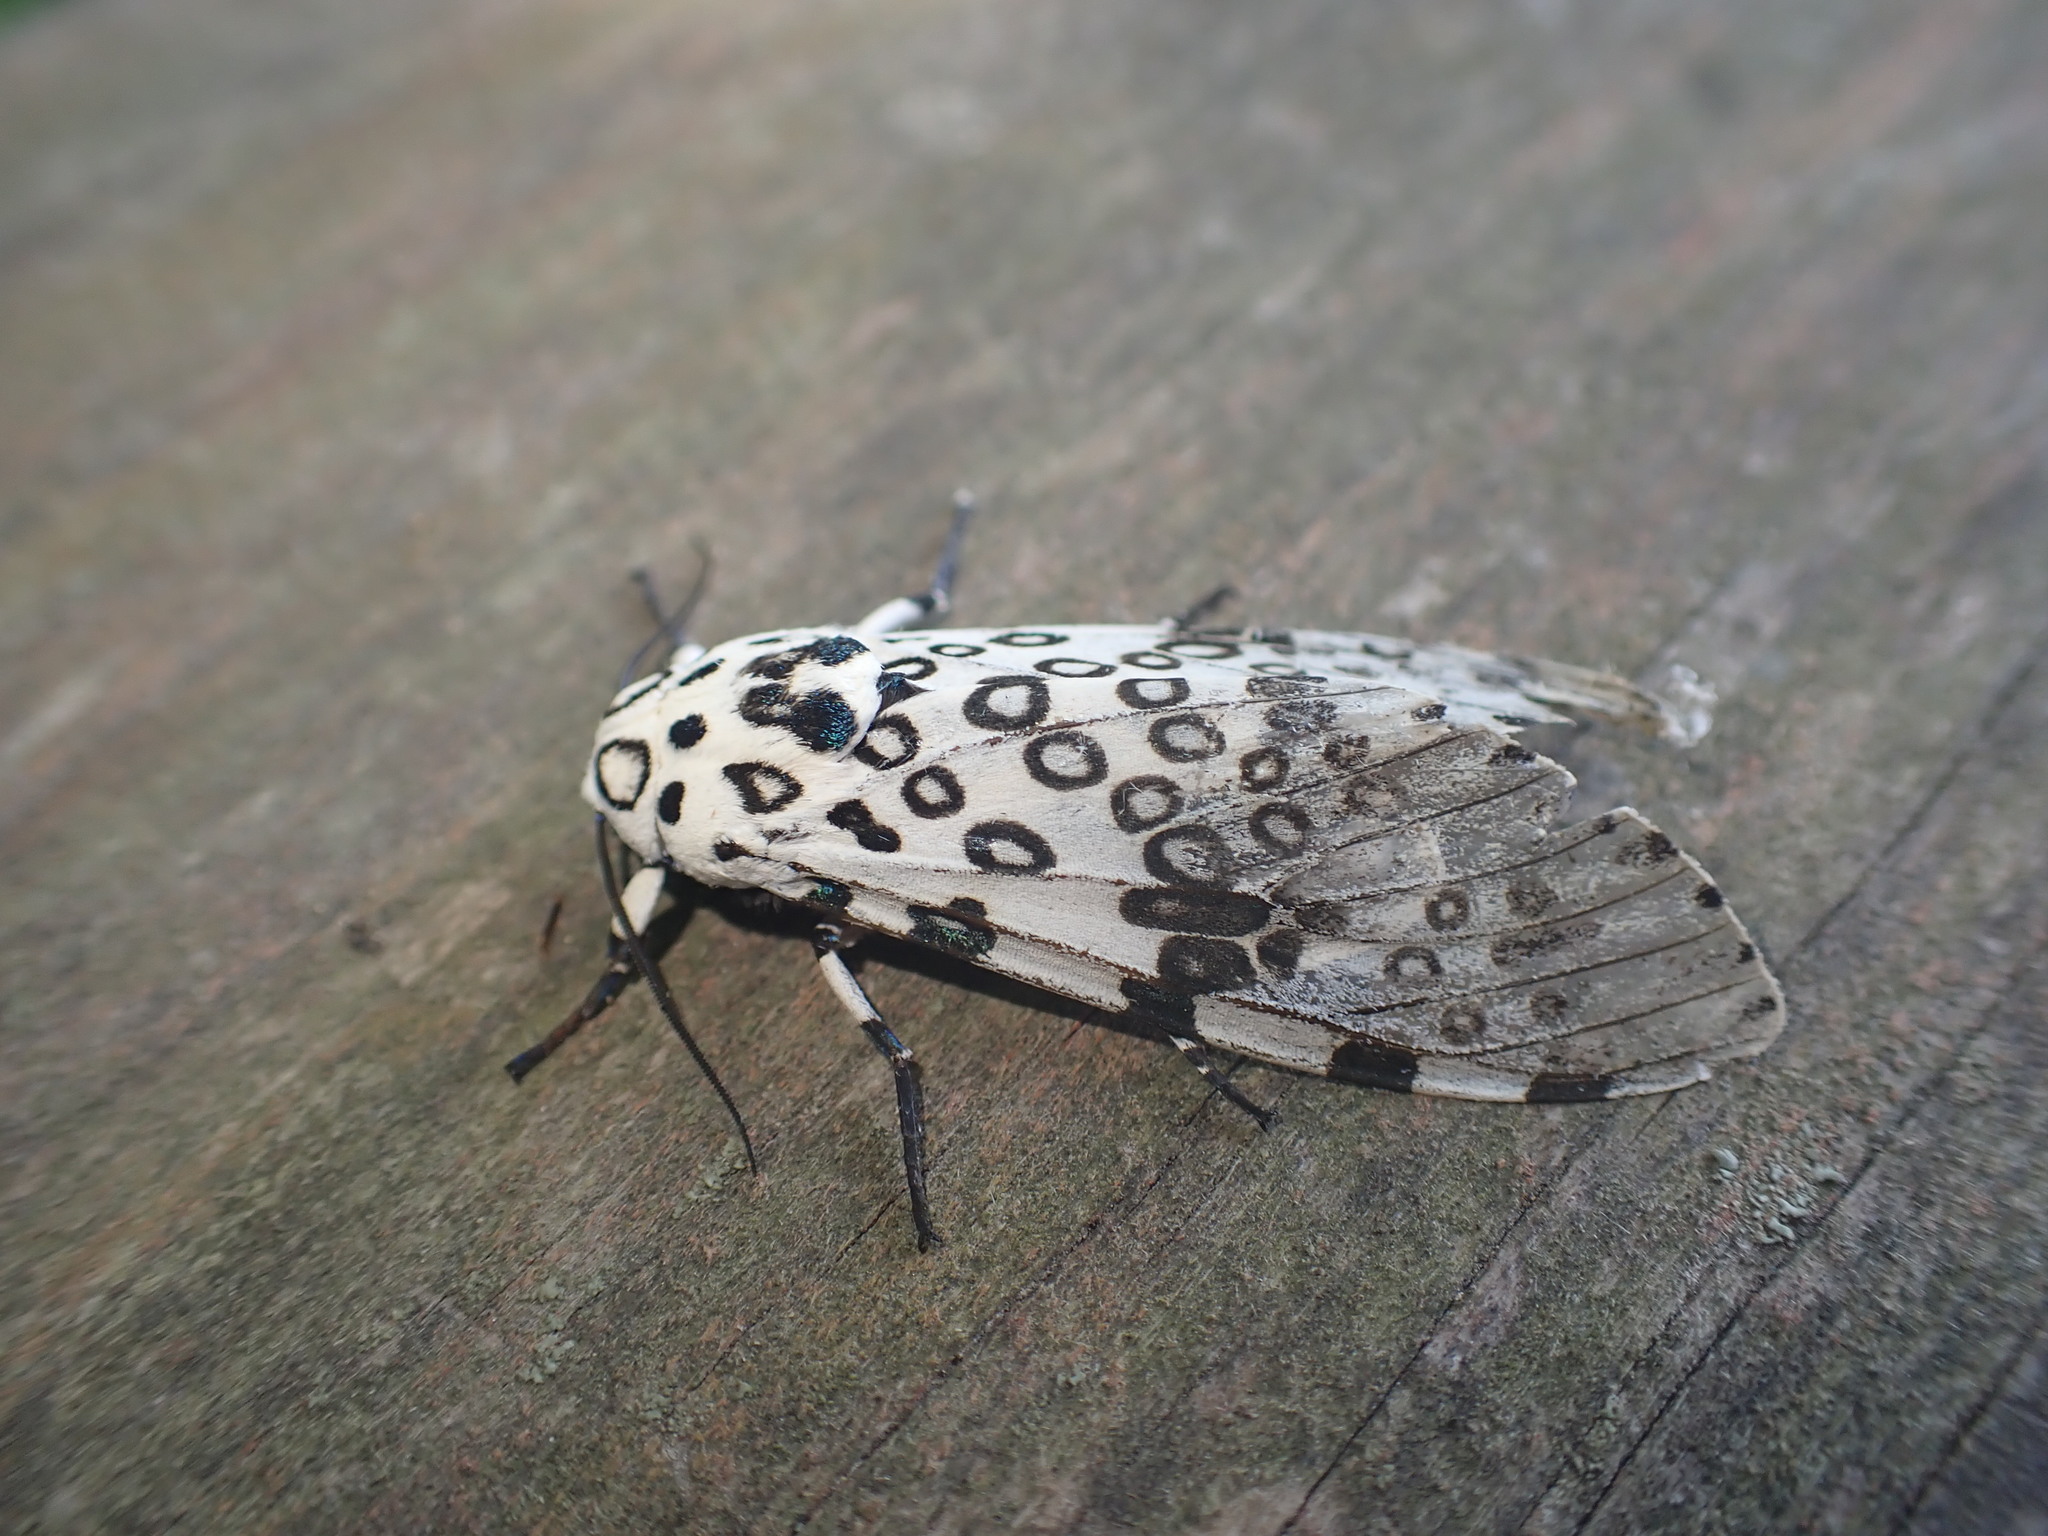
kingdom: Animalia
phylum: Arthropoda
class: Insecta
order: Lepidoptera
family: Erebidae
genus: Hypercompe
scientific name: Hypercompe scribonia
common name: Giant leopard moth
